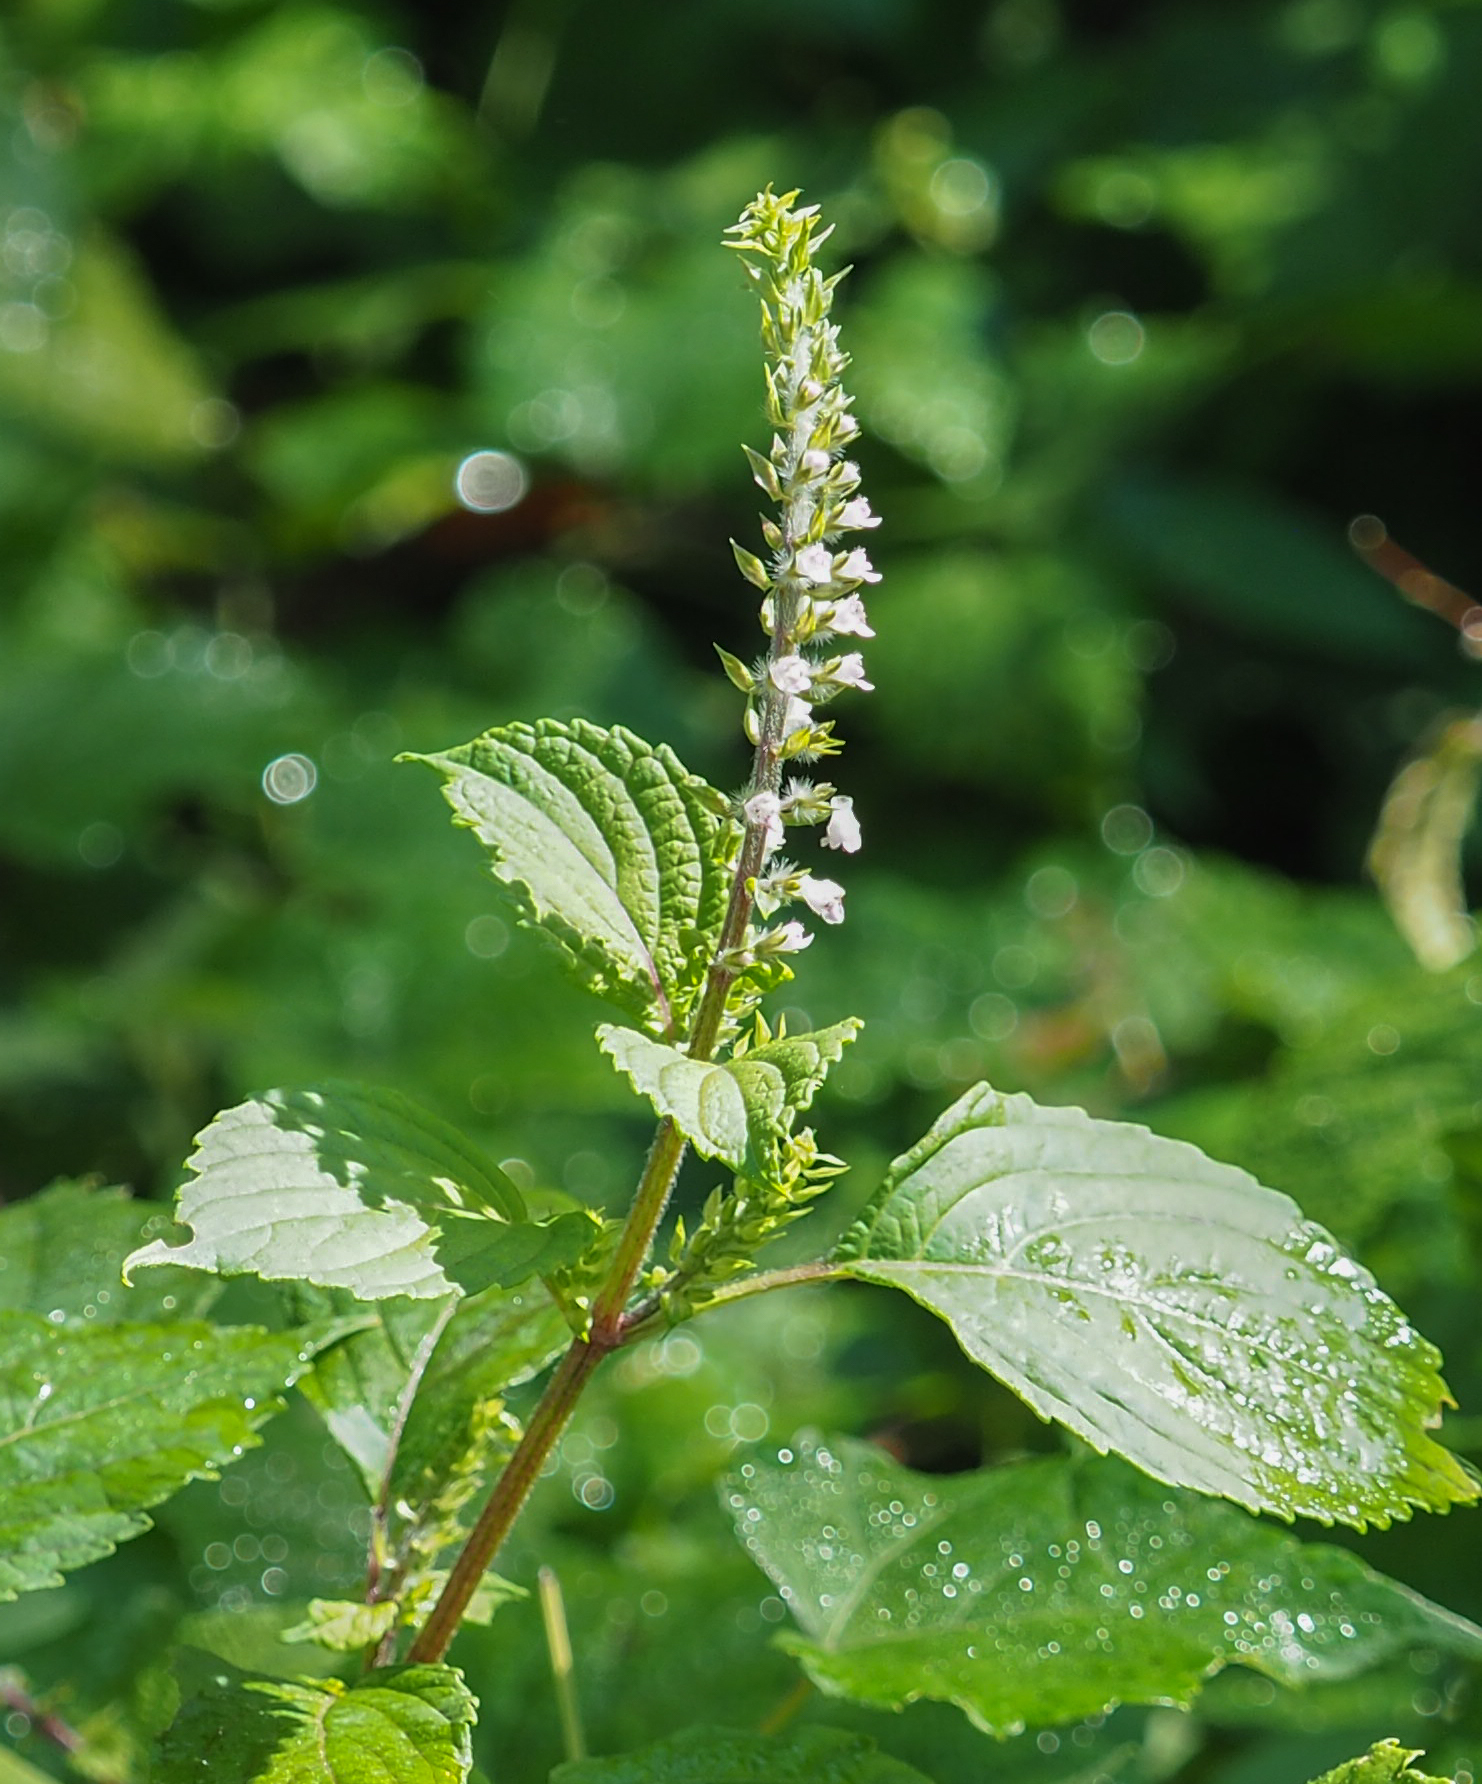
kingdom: Plantae
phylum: Tracheophyta
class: Magnoliopsida
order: Lamiales
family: Lamiaceae
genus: Perilla
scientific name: Perilla frutescens
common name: Perilla
